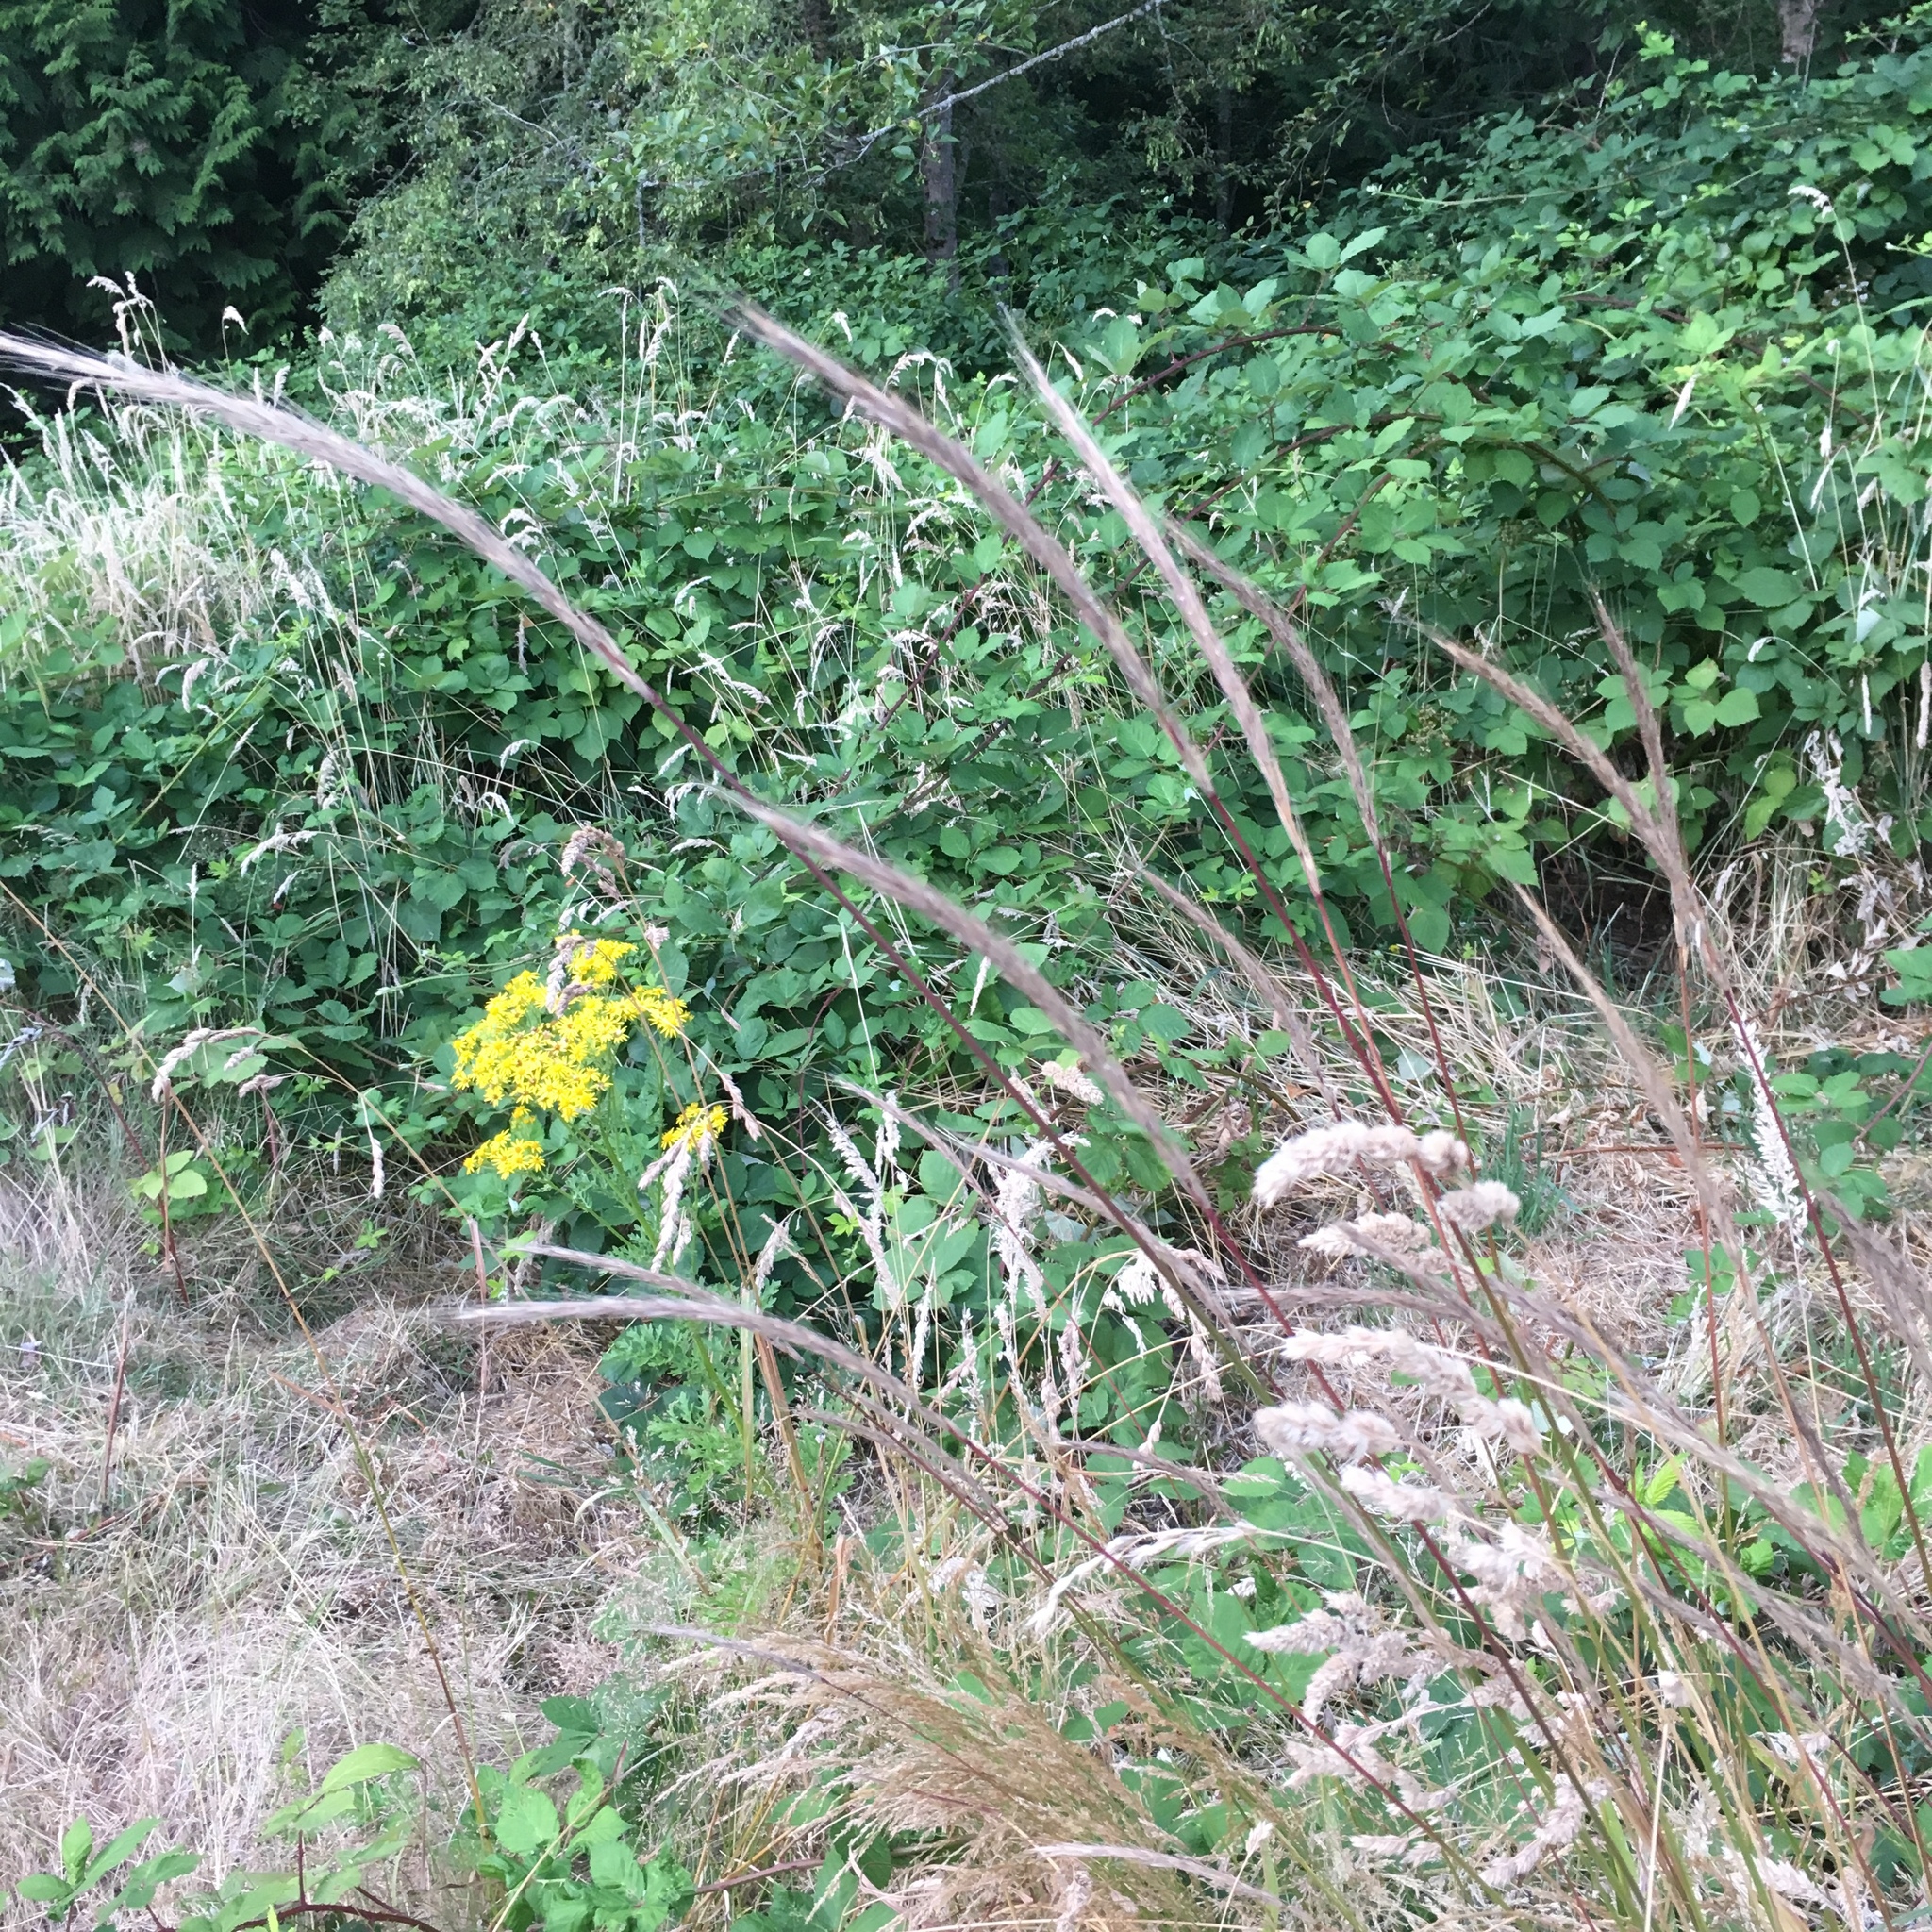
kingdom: Plantae
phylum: Tracheophyta
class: Liliopsida
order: Poales
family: Poaceae
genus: Elymus
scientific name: Elymus glaucus
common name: Blue wild rye
